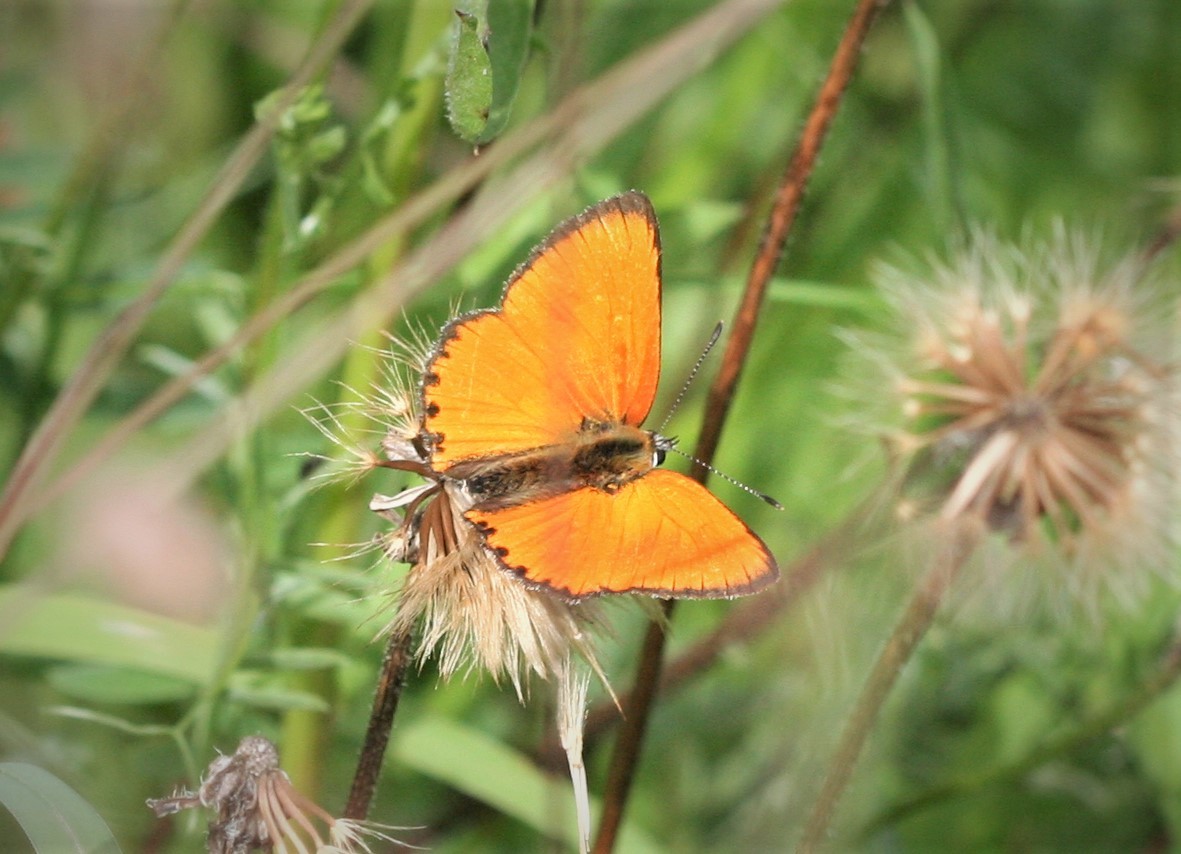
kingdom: Animalia
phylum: Arthropoda
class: Insecta
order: Lepidoptera
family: Lycaenidae
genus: Lycaena
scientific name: Lycaena virgaureae
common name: Scarce copper
